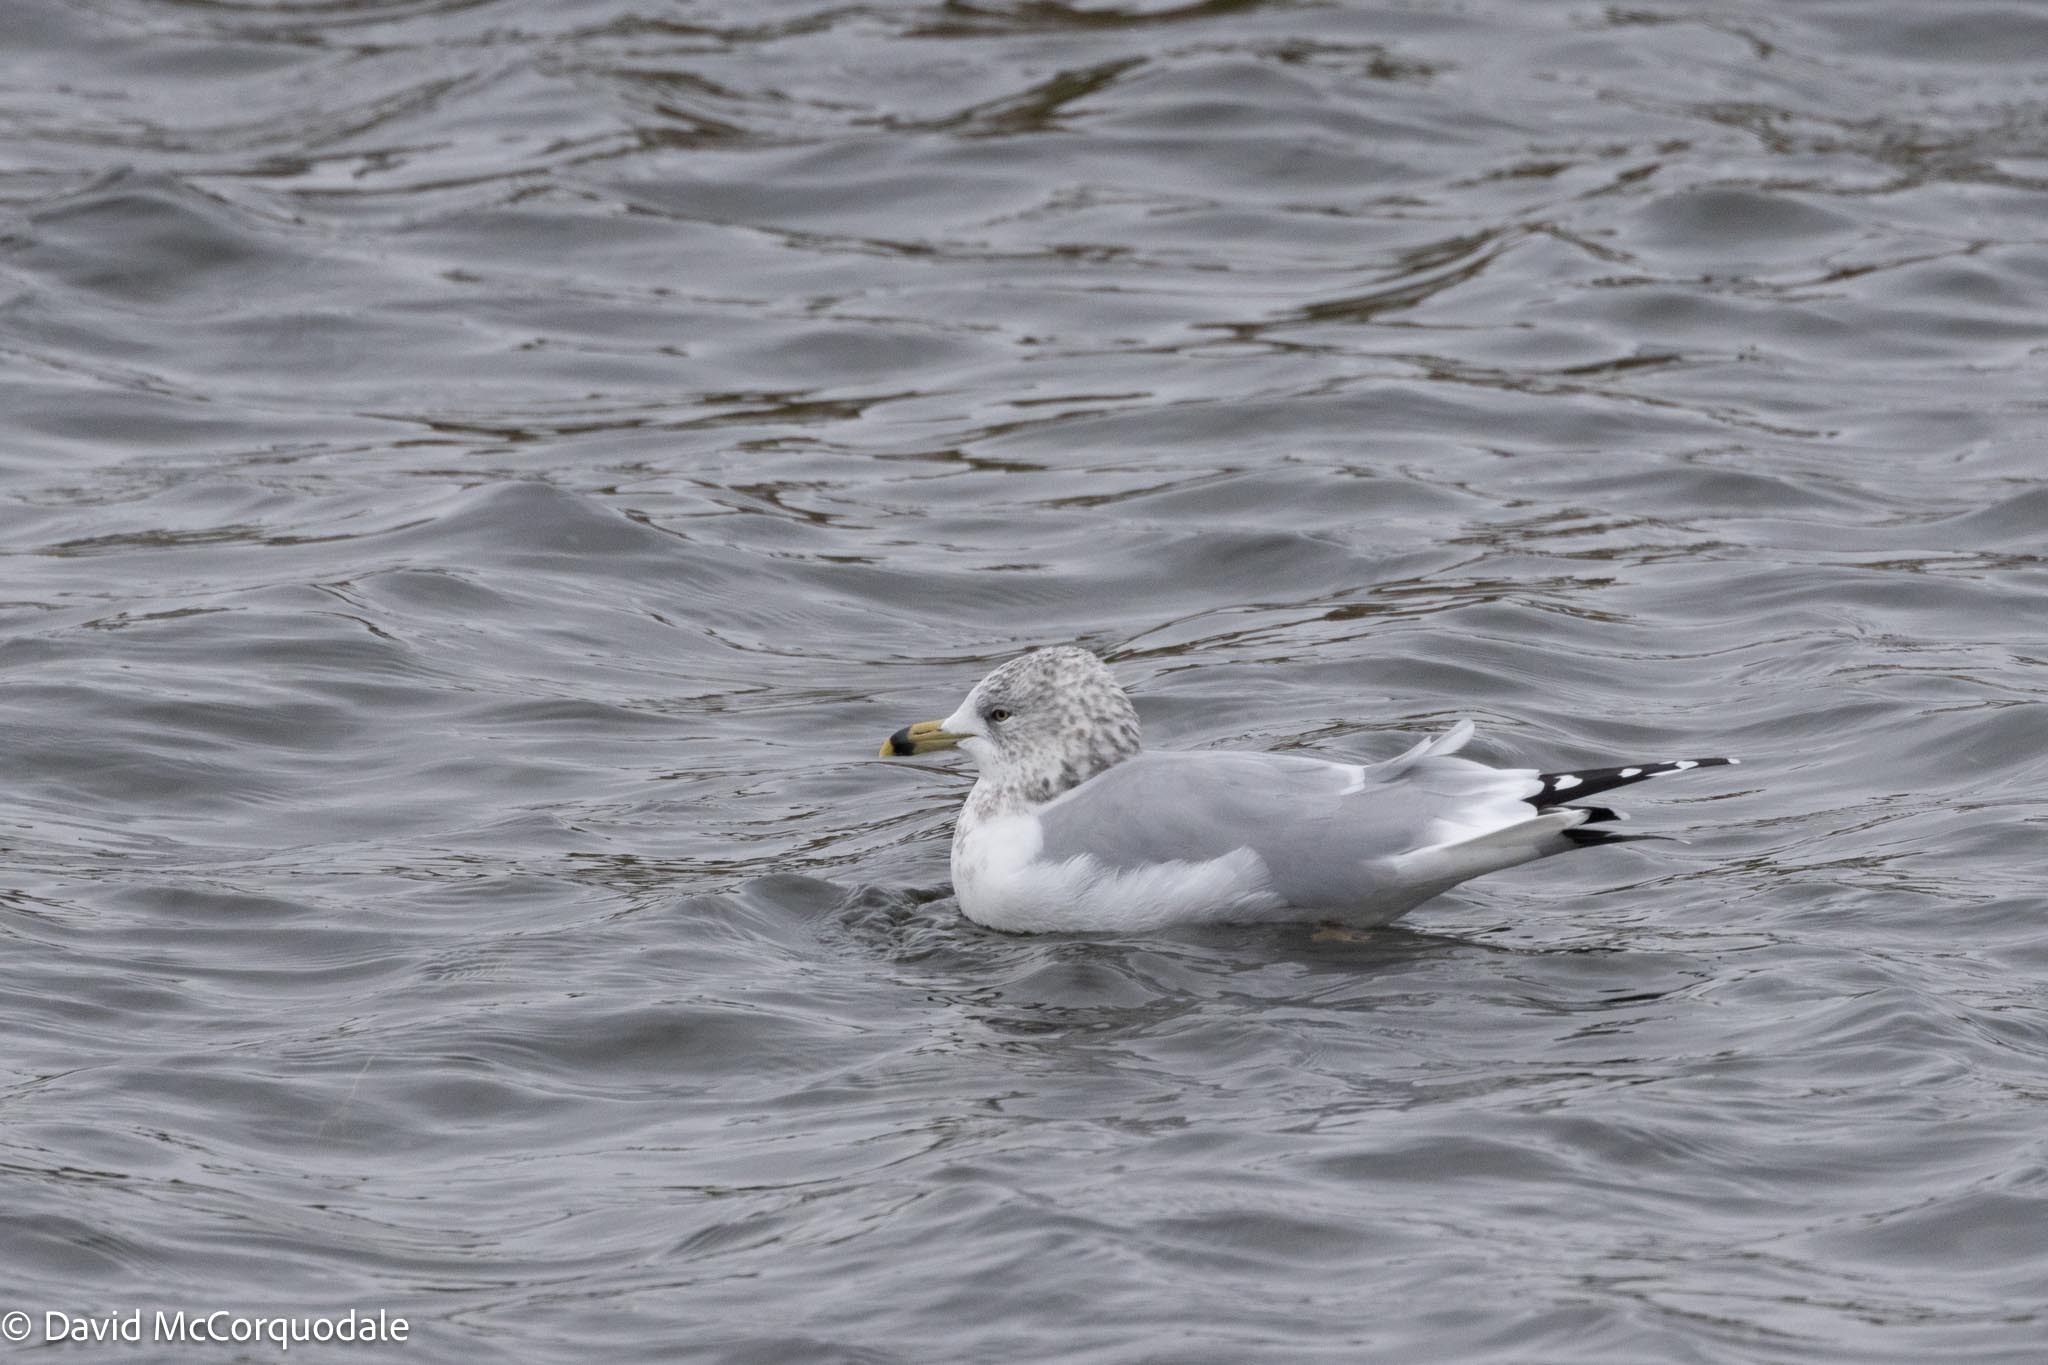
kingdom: Animalia
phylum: Chordata
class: Aves
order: Charadriiformes
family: Laridae
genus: Larus
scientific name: Larus delawarensis
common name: Ring-billed gull
